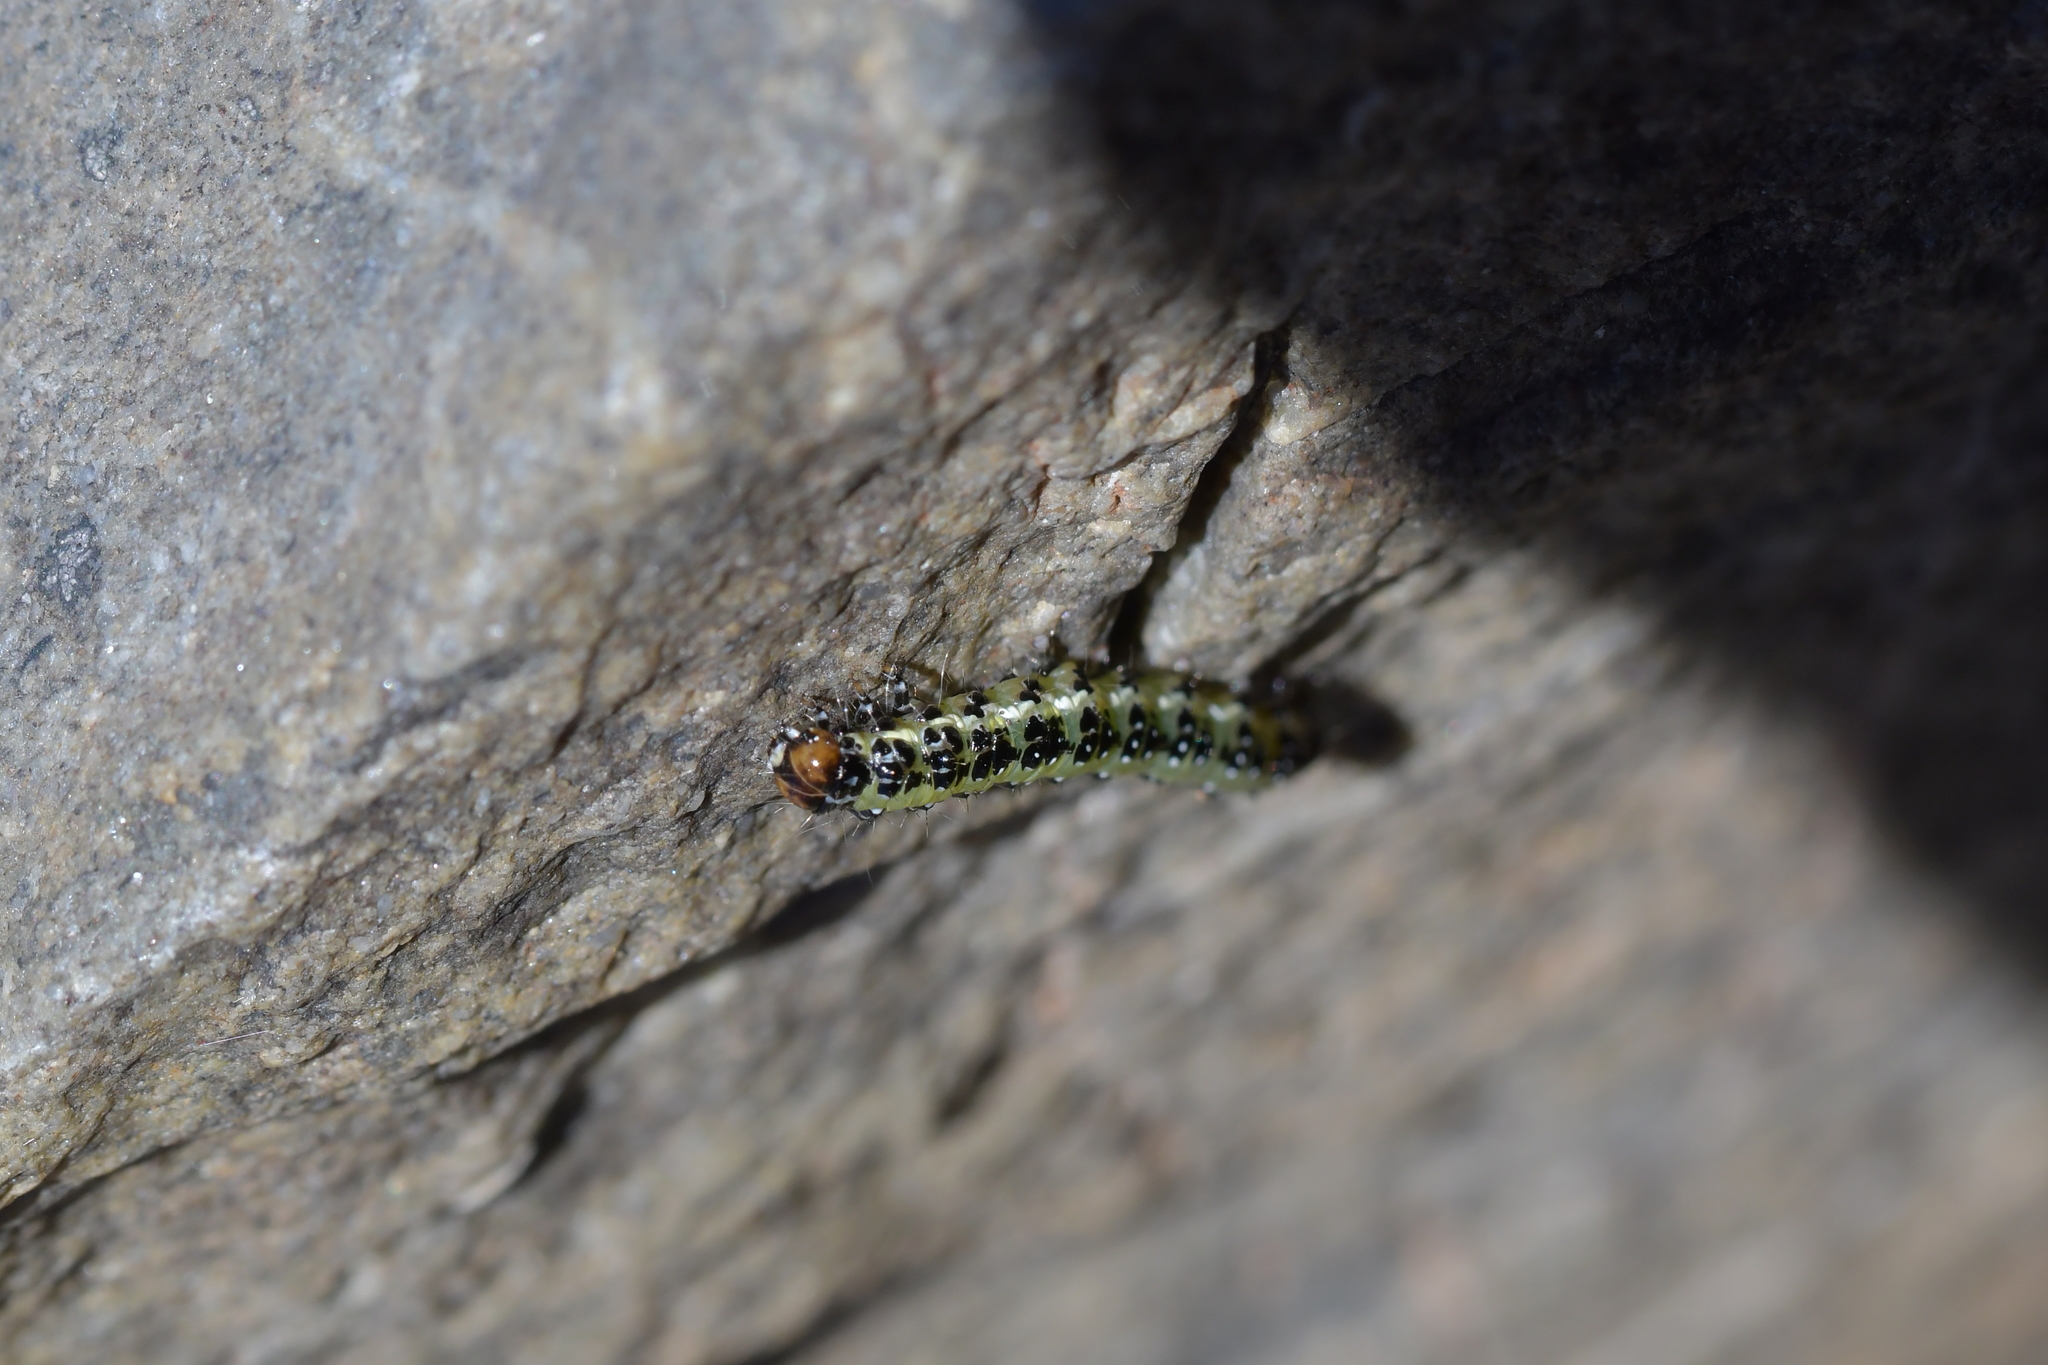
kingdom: Animalia
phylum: Arthropoda
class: Insecta
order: Lepidoptera
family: Crambidae
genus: Uresiphita
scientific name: Uresiphita
